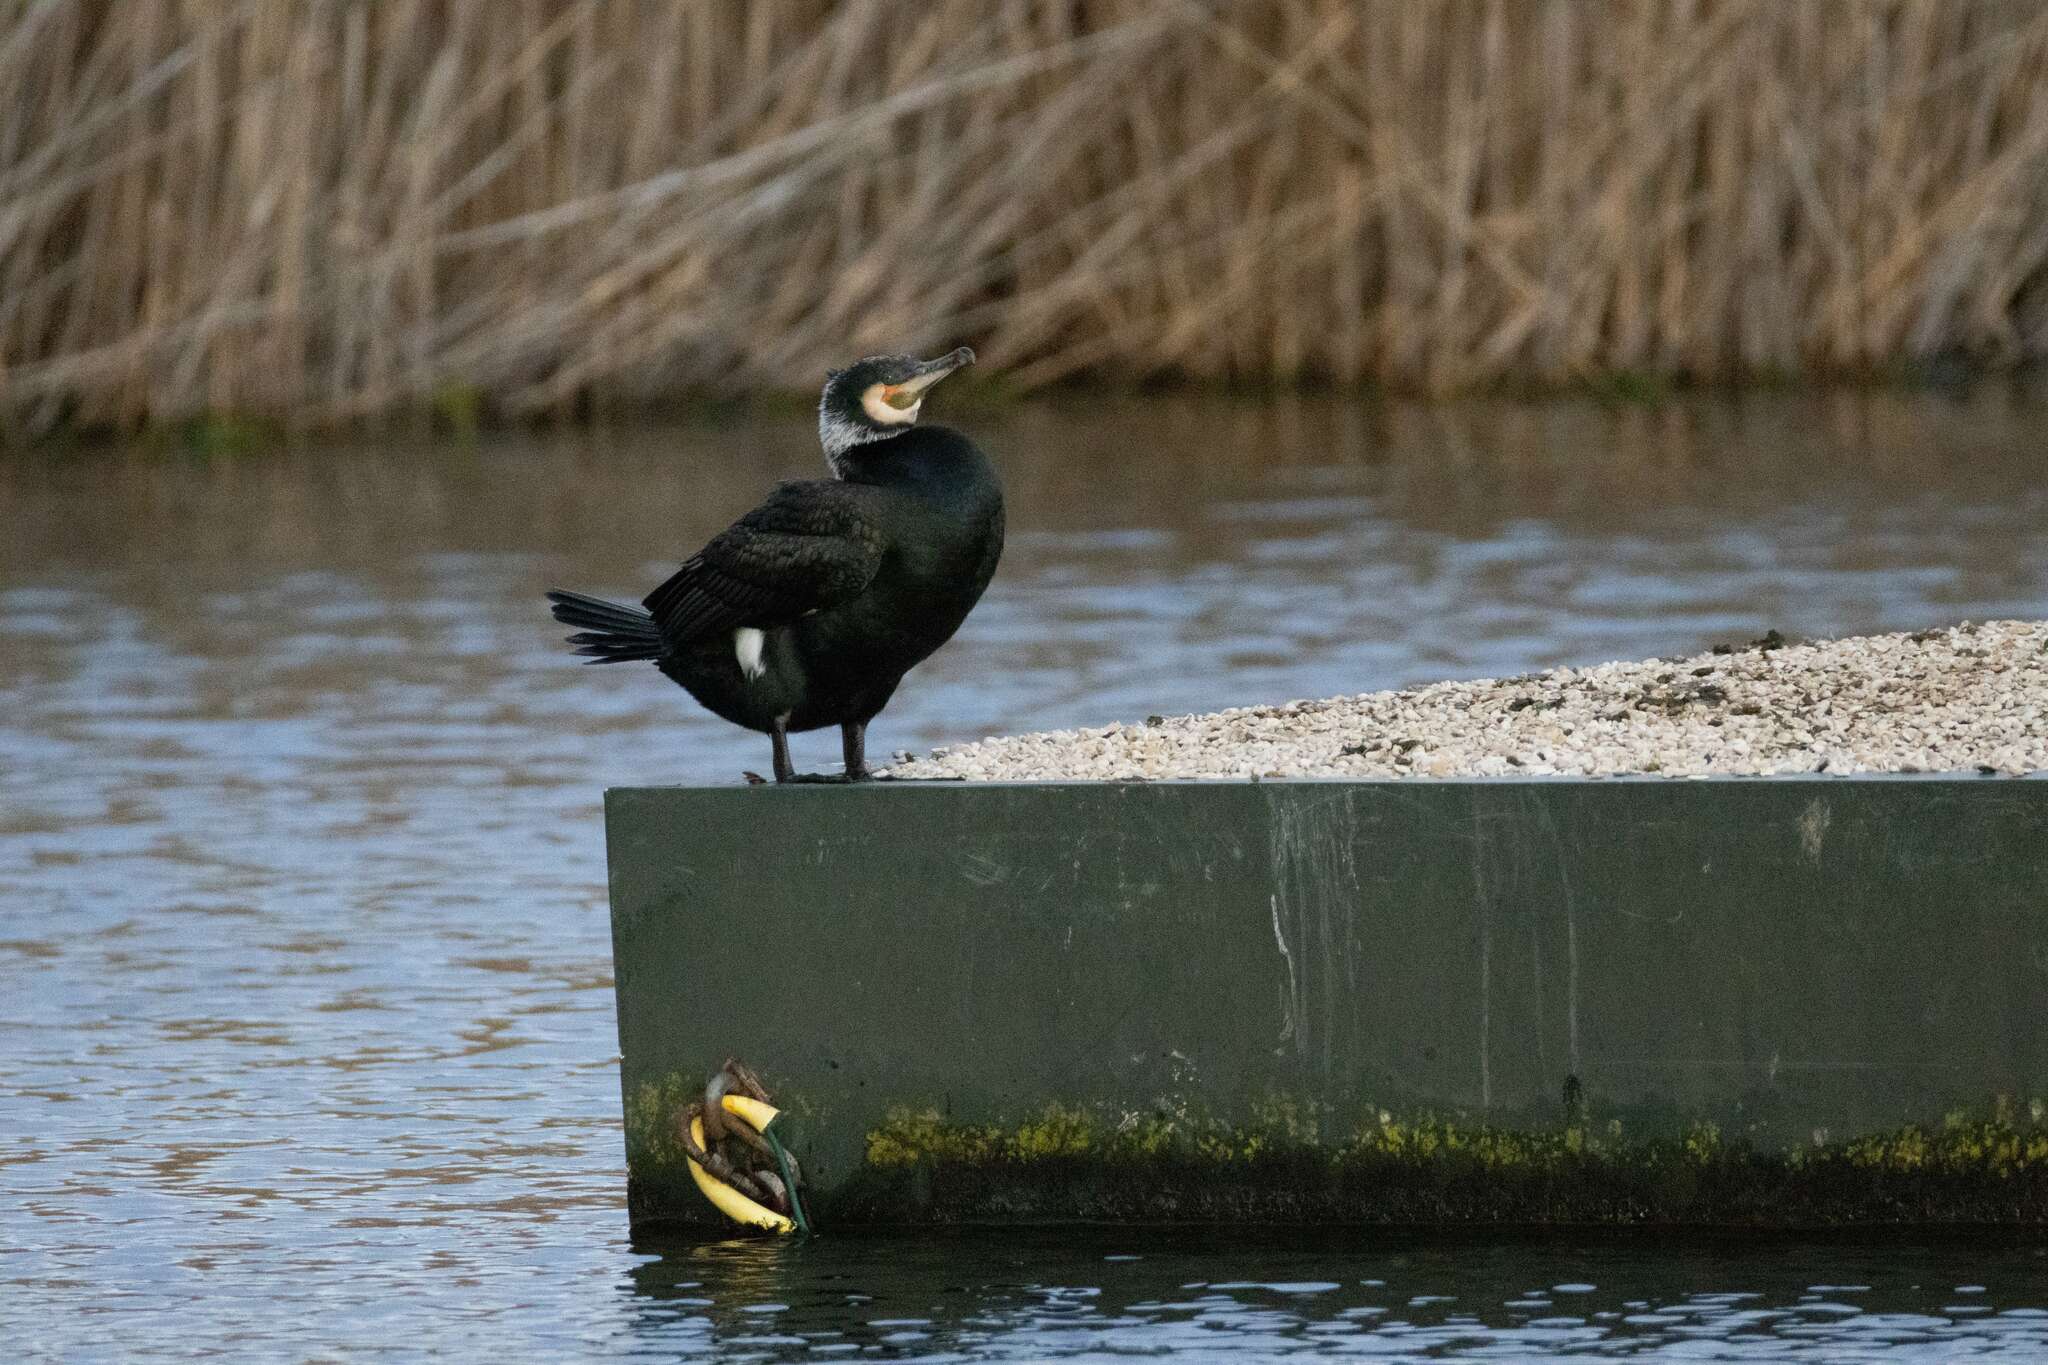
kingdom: Animalia
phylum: Chordata
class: Aves
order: Suliformes
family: Phalacrocoracidae
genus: Phalacrocorax
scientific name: Phalacrocorax carbo
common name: Great cormorant
